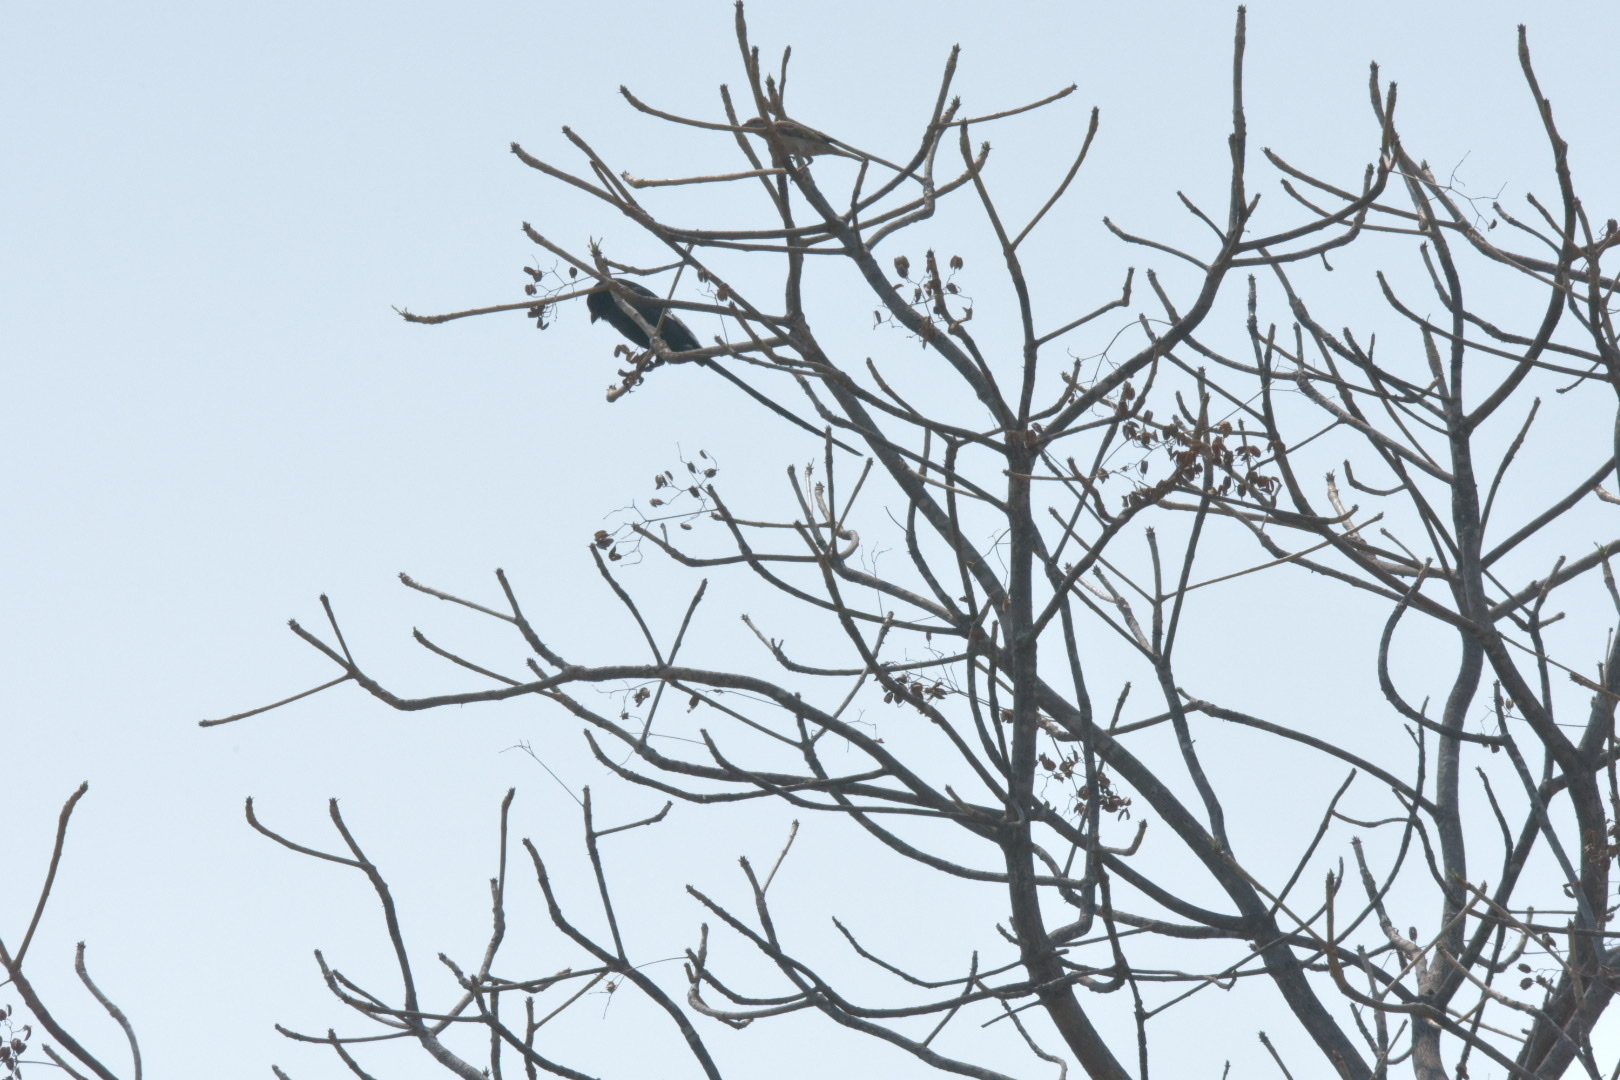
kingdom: Animalia
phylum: Chordata
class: Aves
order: Passeriformes
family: Laniidae
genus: Urolestes
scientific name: Urolestes melanoleucus
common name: Magpie shrike
